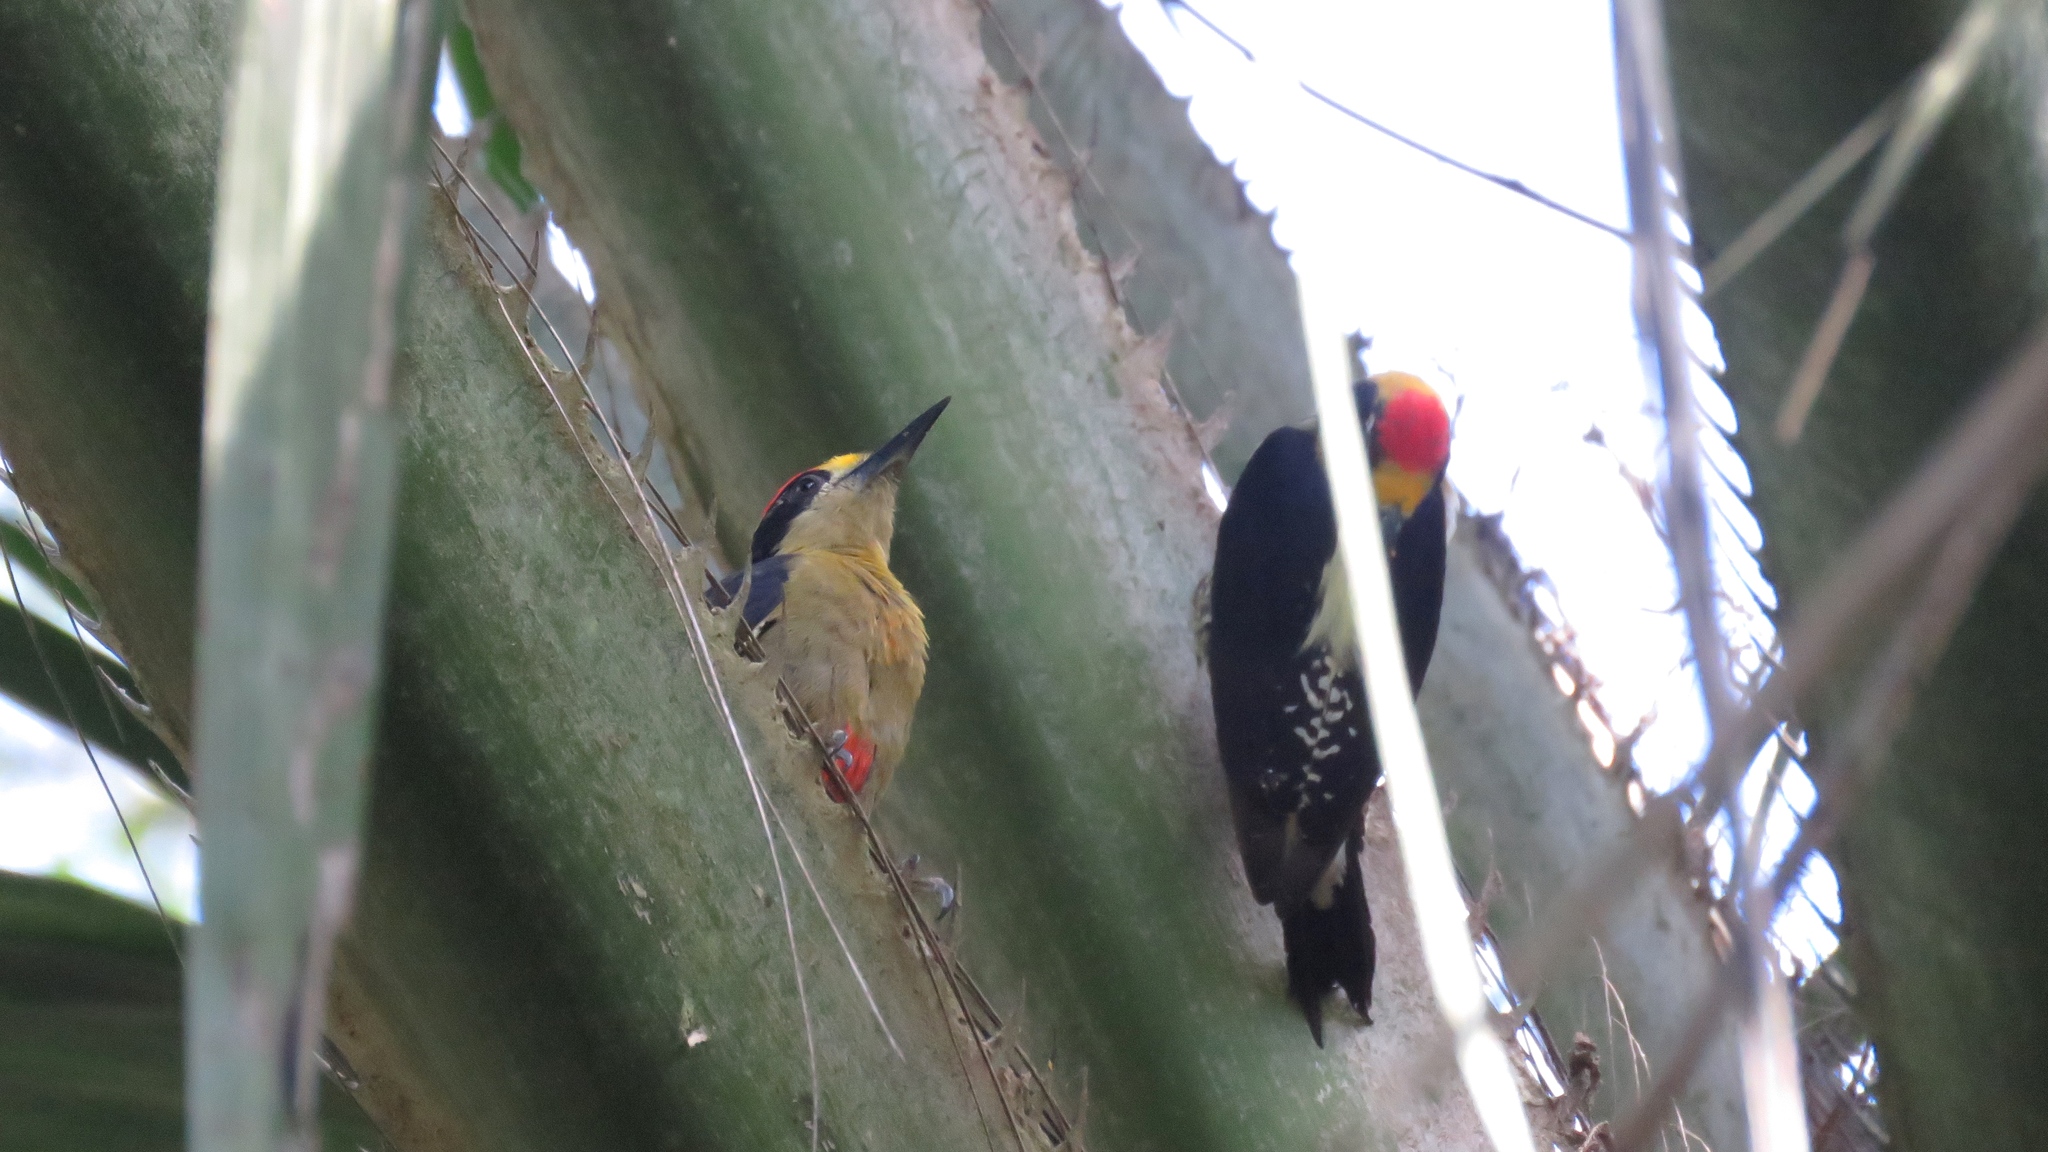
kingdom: Animalia
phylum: Chordata
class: Aves
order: Piciformes
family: Picidae
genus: Melanerpes
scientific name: Melanerpes chrysauchen
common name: Golden-naped woodpecker
